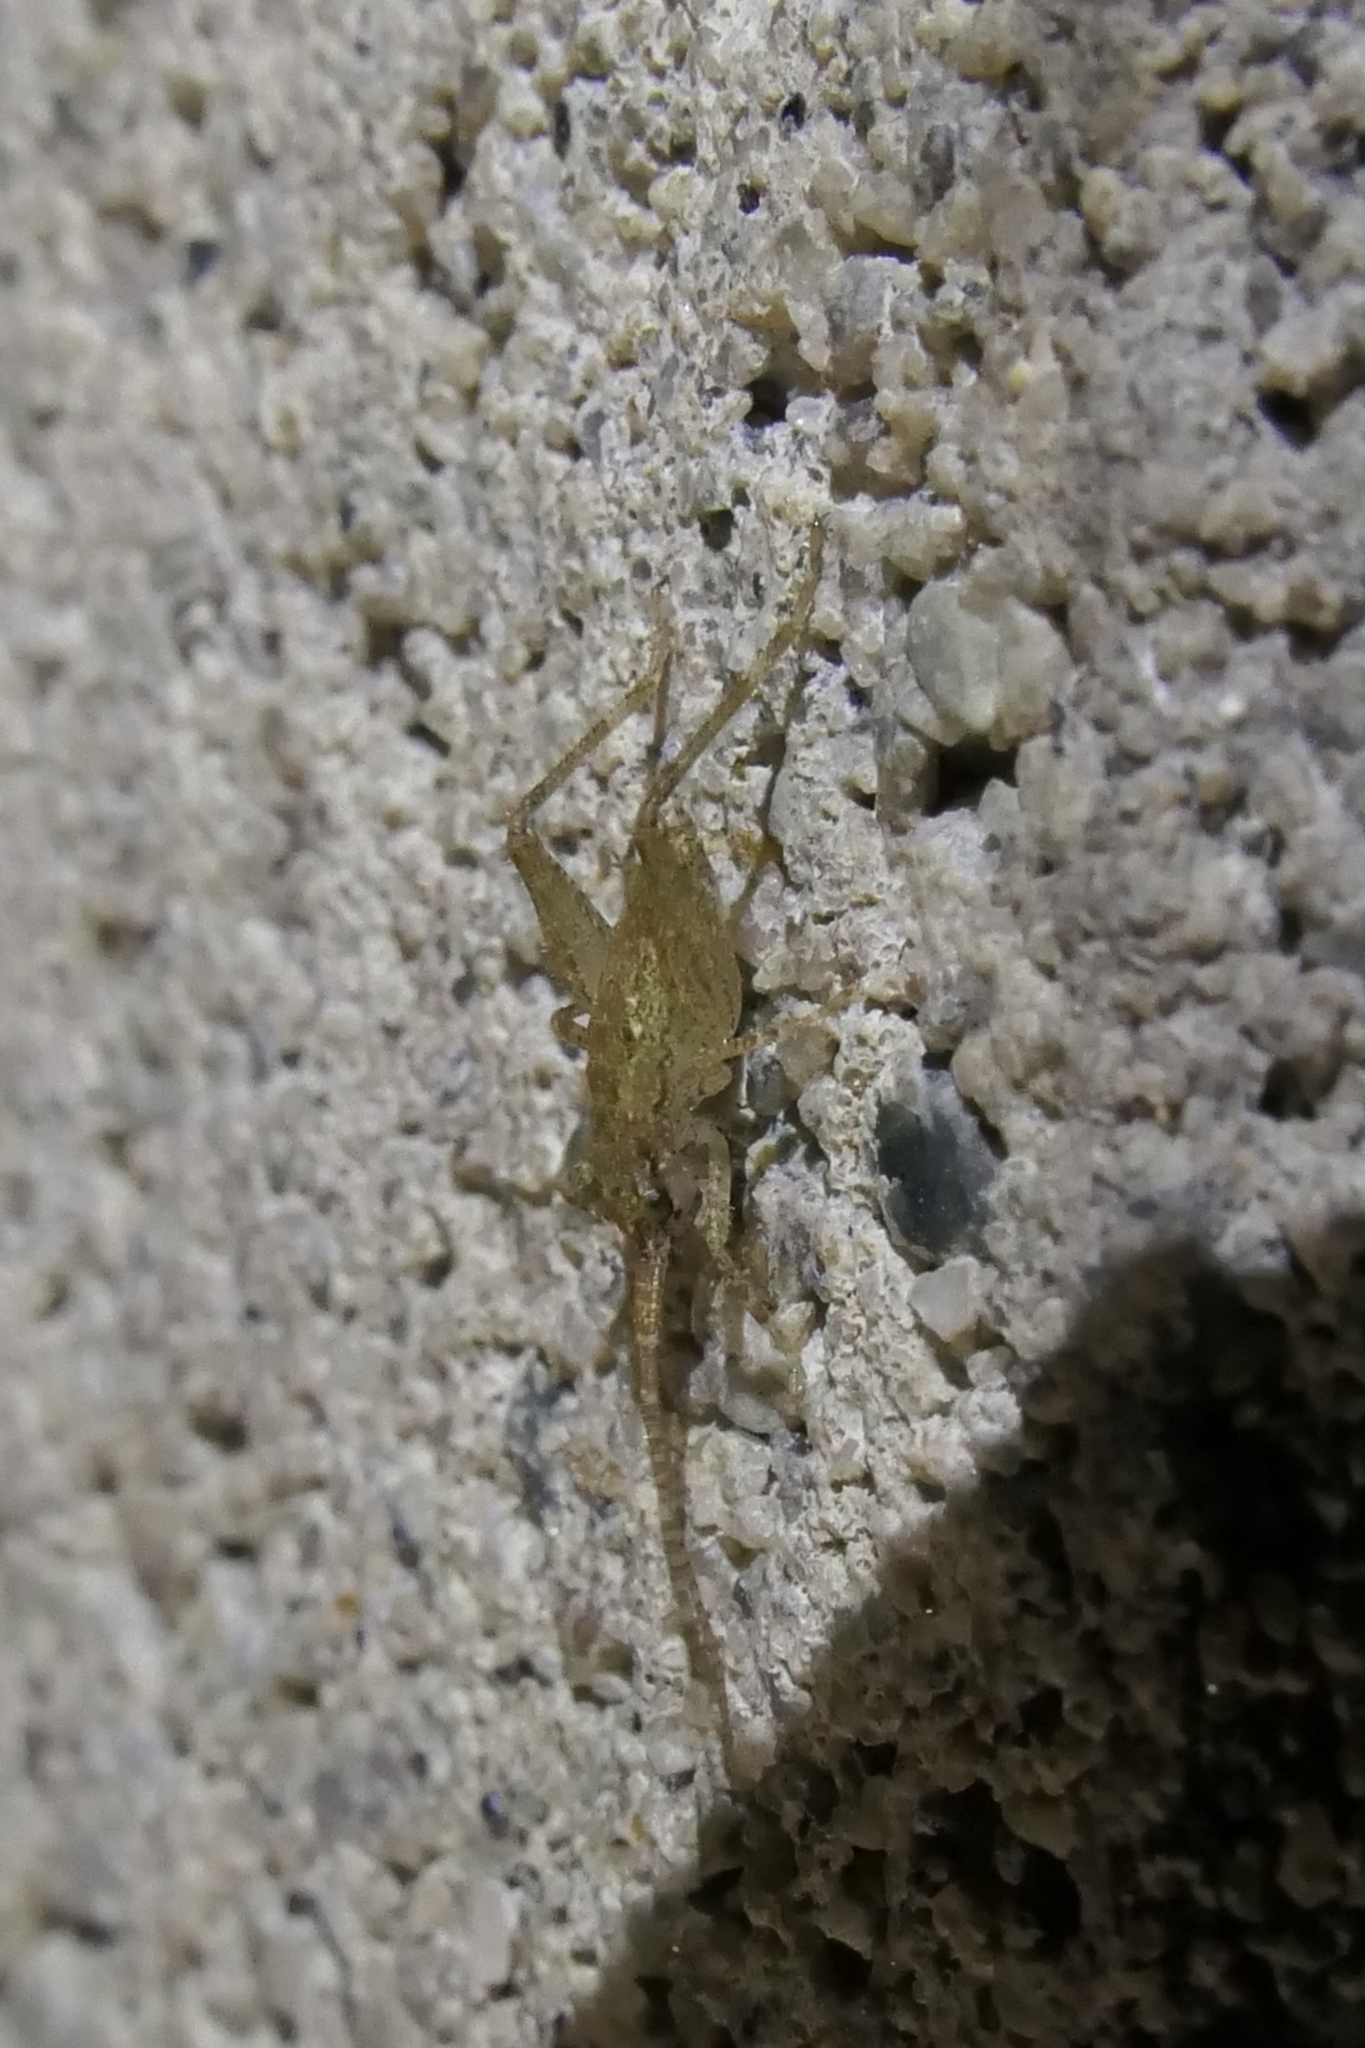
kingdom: Animalia
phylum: Arthropoda
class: Insecta
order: Orthoptera
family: Rhaphidophoridae
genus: Isoplectron
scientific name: Isoplectron armatum
